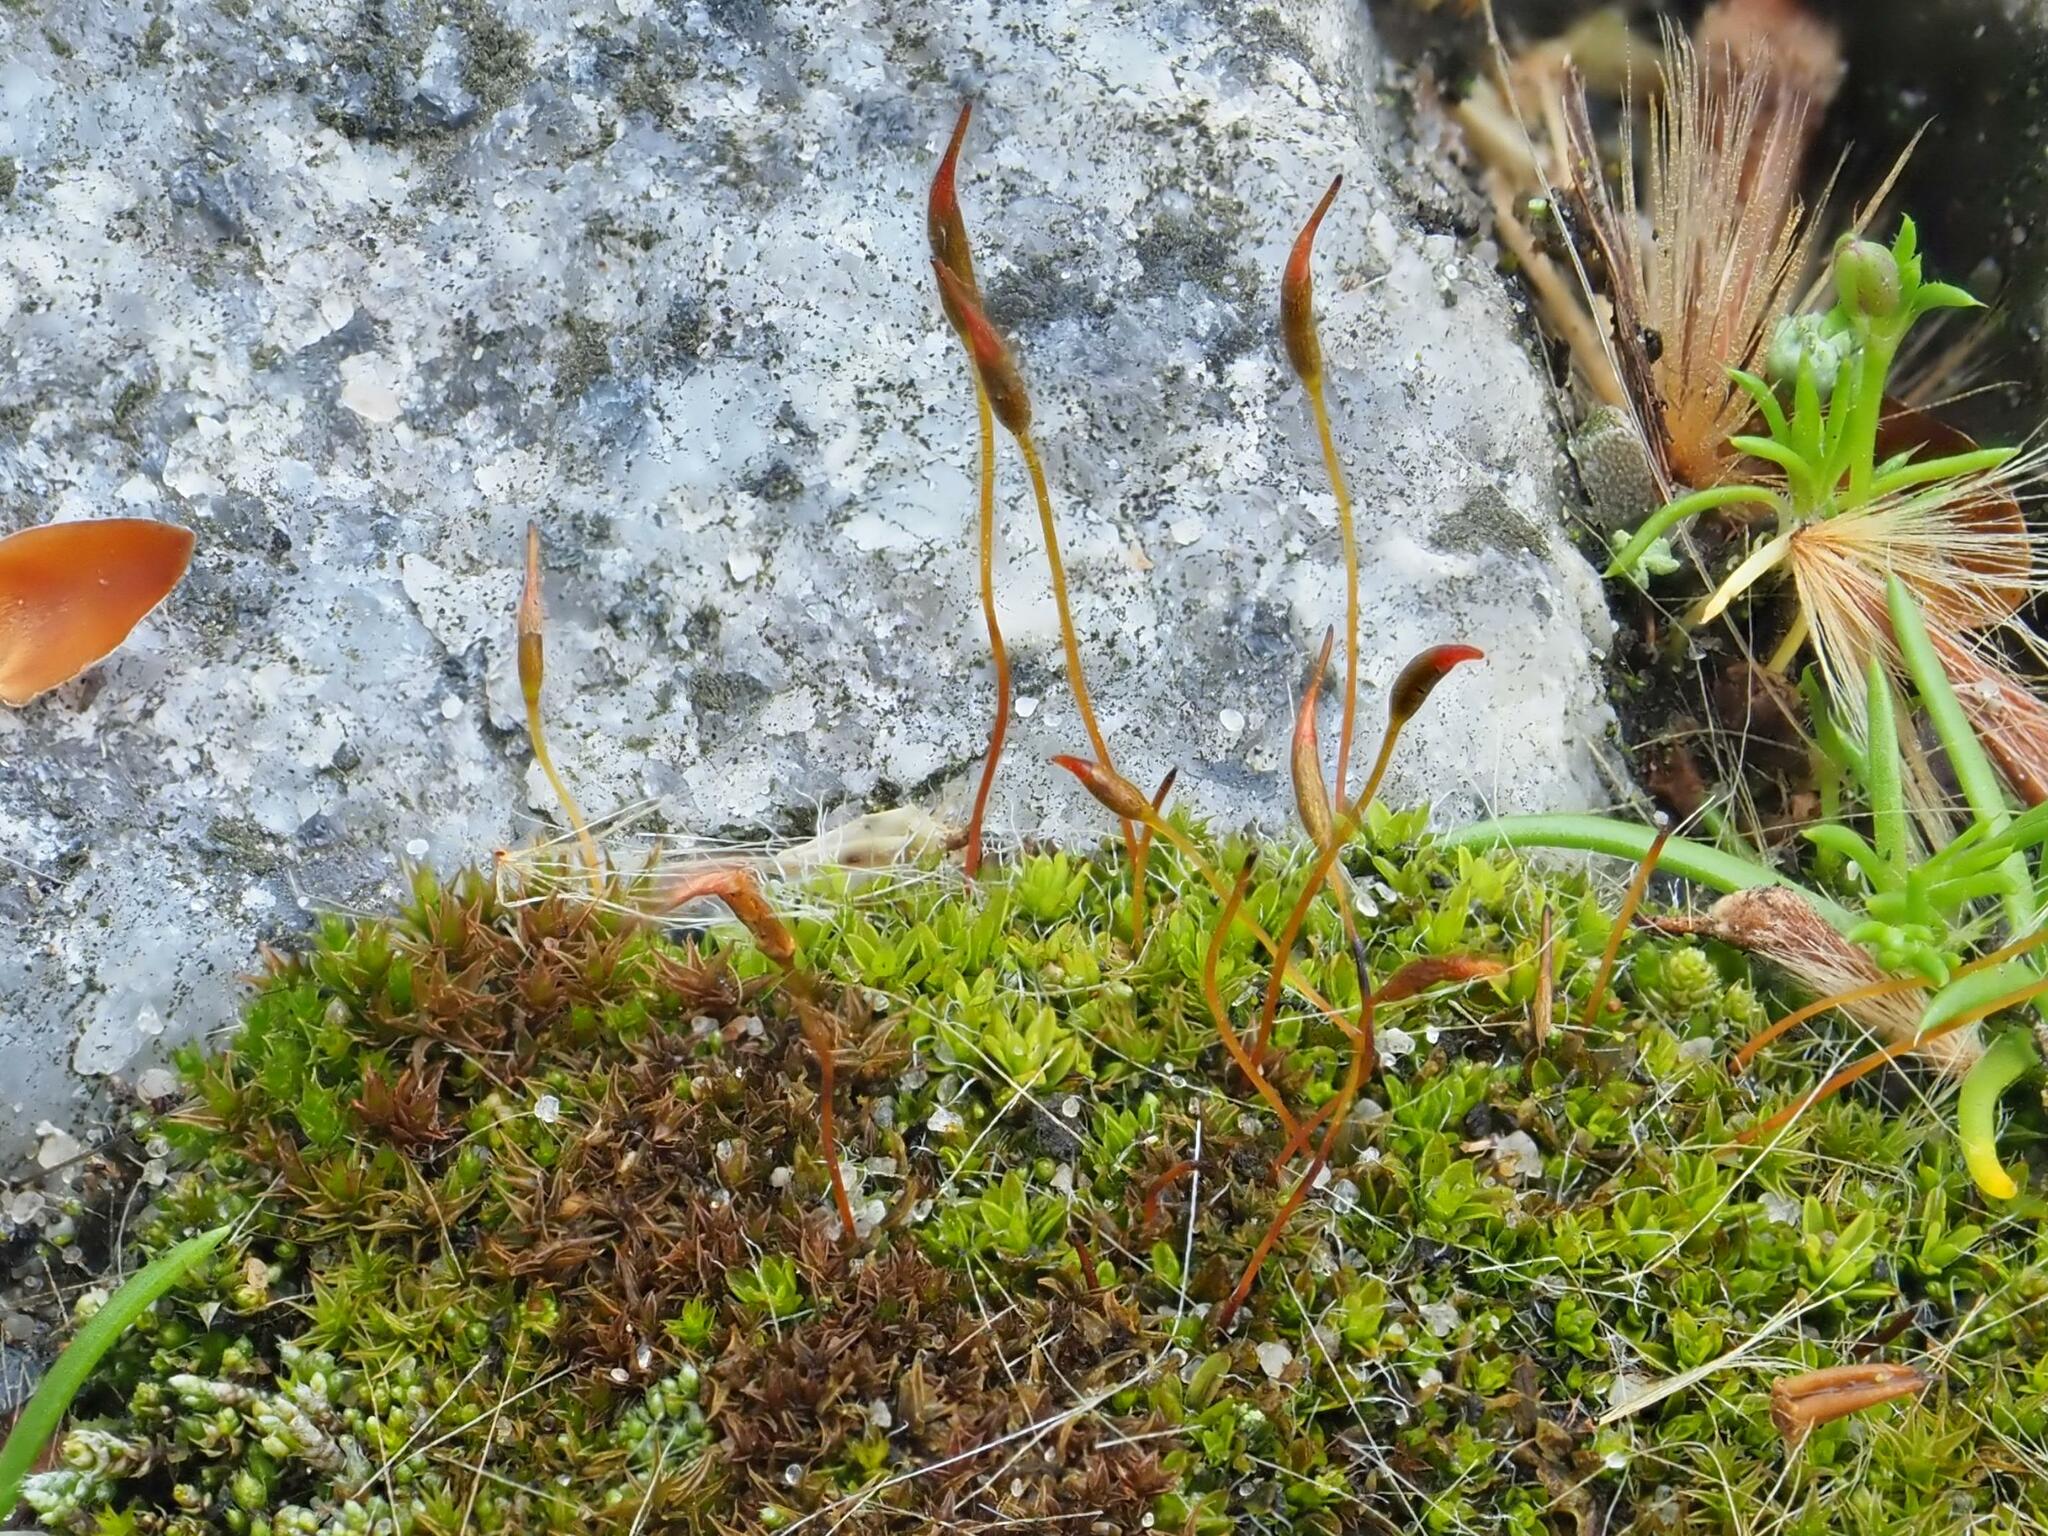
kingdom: Plantae
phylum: Bryophyta
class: Bryopsida
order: Pottiales
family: Pottiaceae
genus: Tortula
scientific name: Tortula muralis
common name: Wall screw-moss
